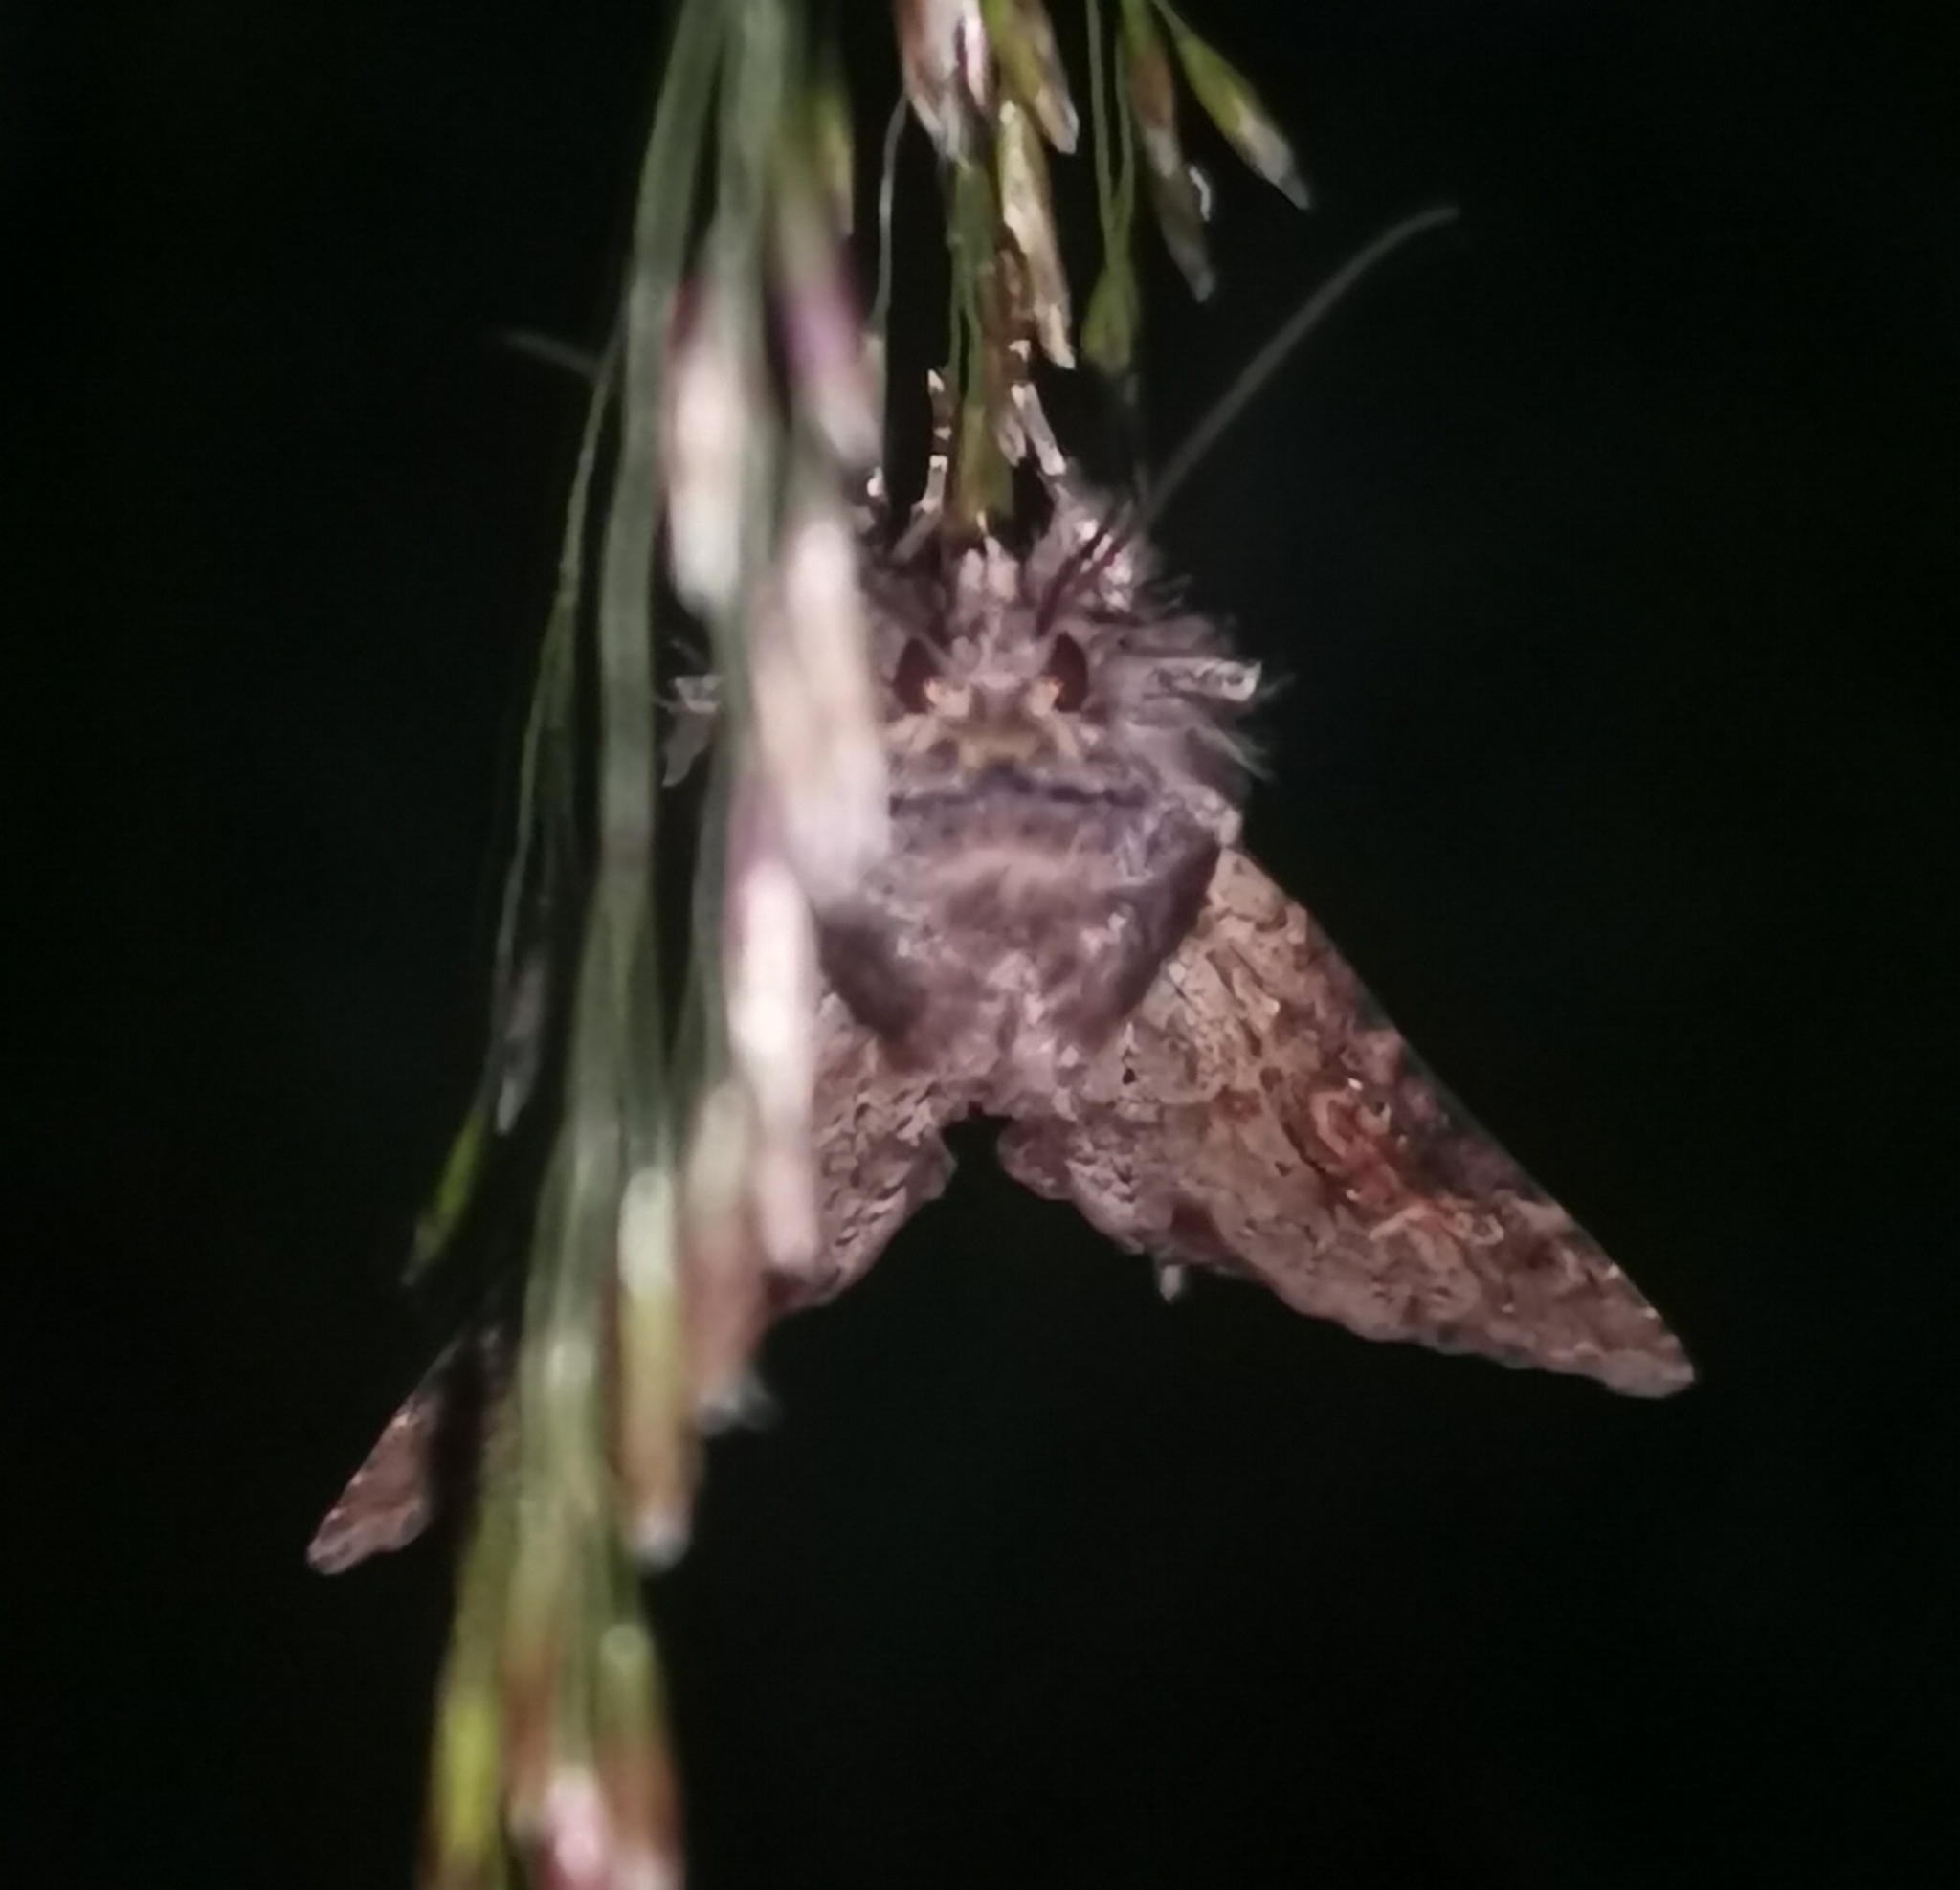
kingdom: Animalia
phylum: Arthropoda
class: Insecta
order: Lepidoptera
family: Noctuidae
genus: Apamea
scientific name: Apamea crenata
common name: Clouded-bordered brindle
